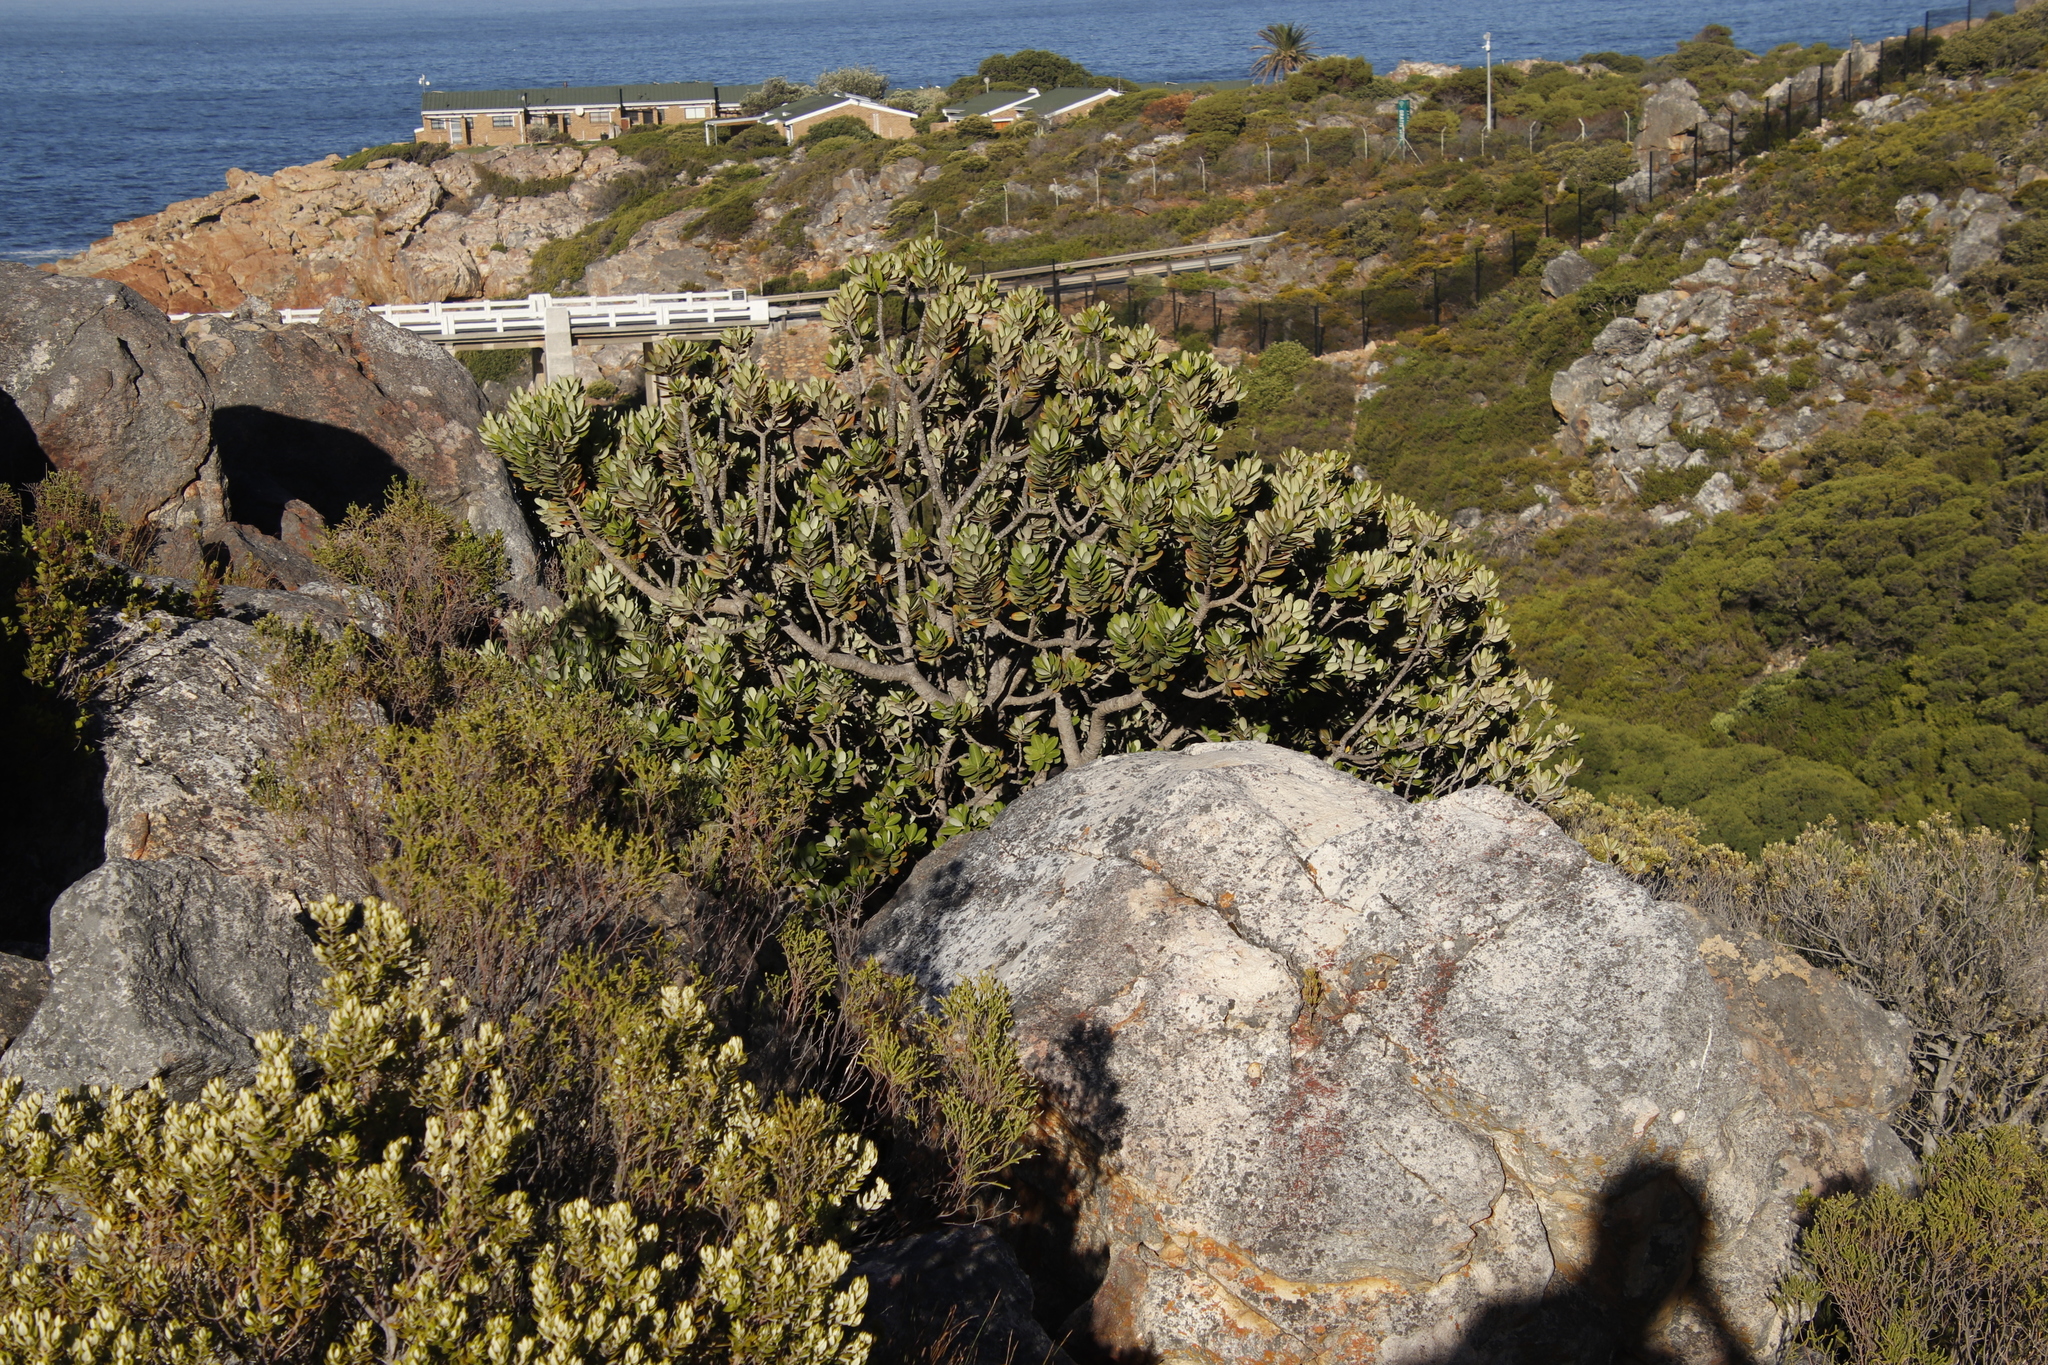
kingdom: Plantae
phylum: Tracheophyta
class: Magnoliopsida
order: Sapindales
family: Anacardiaceae
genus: Heeria
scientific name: Heeria argentea
